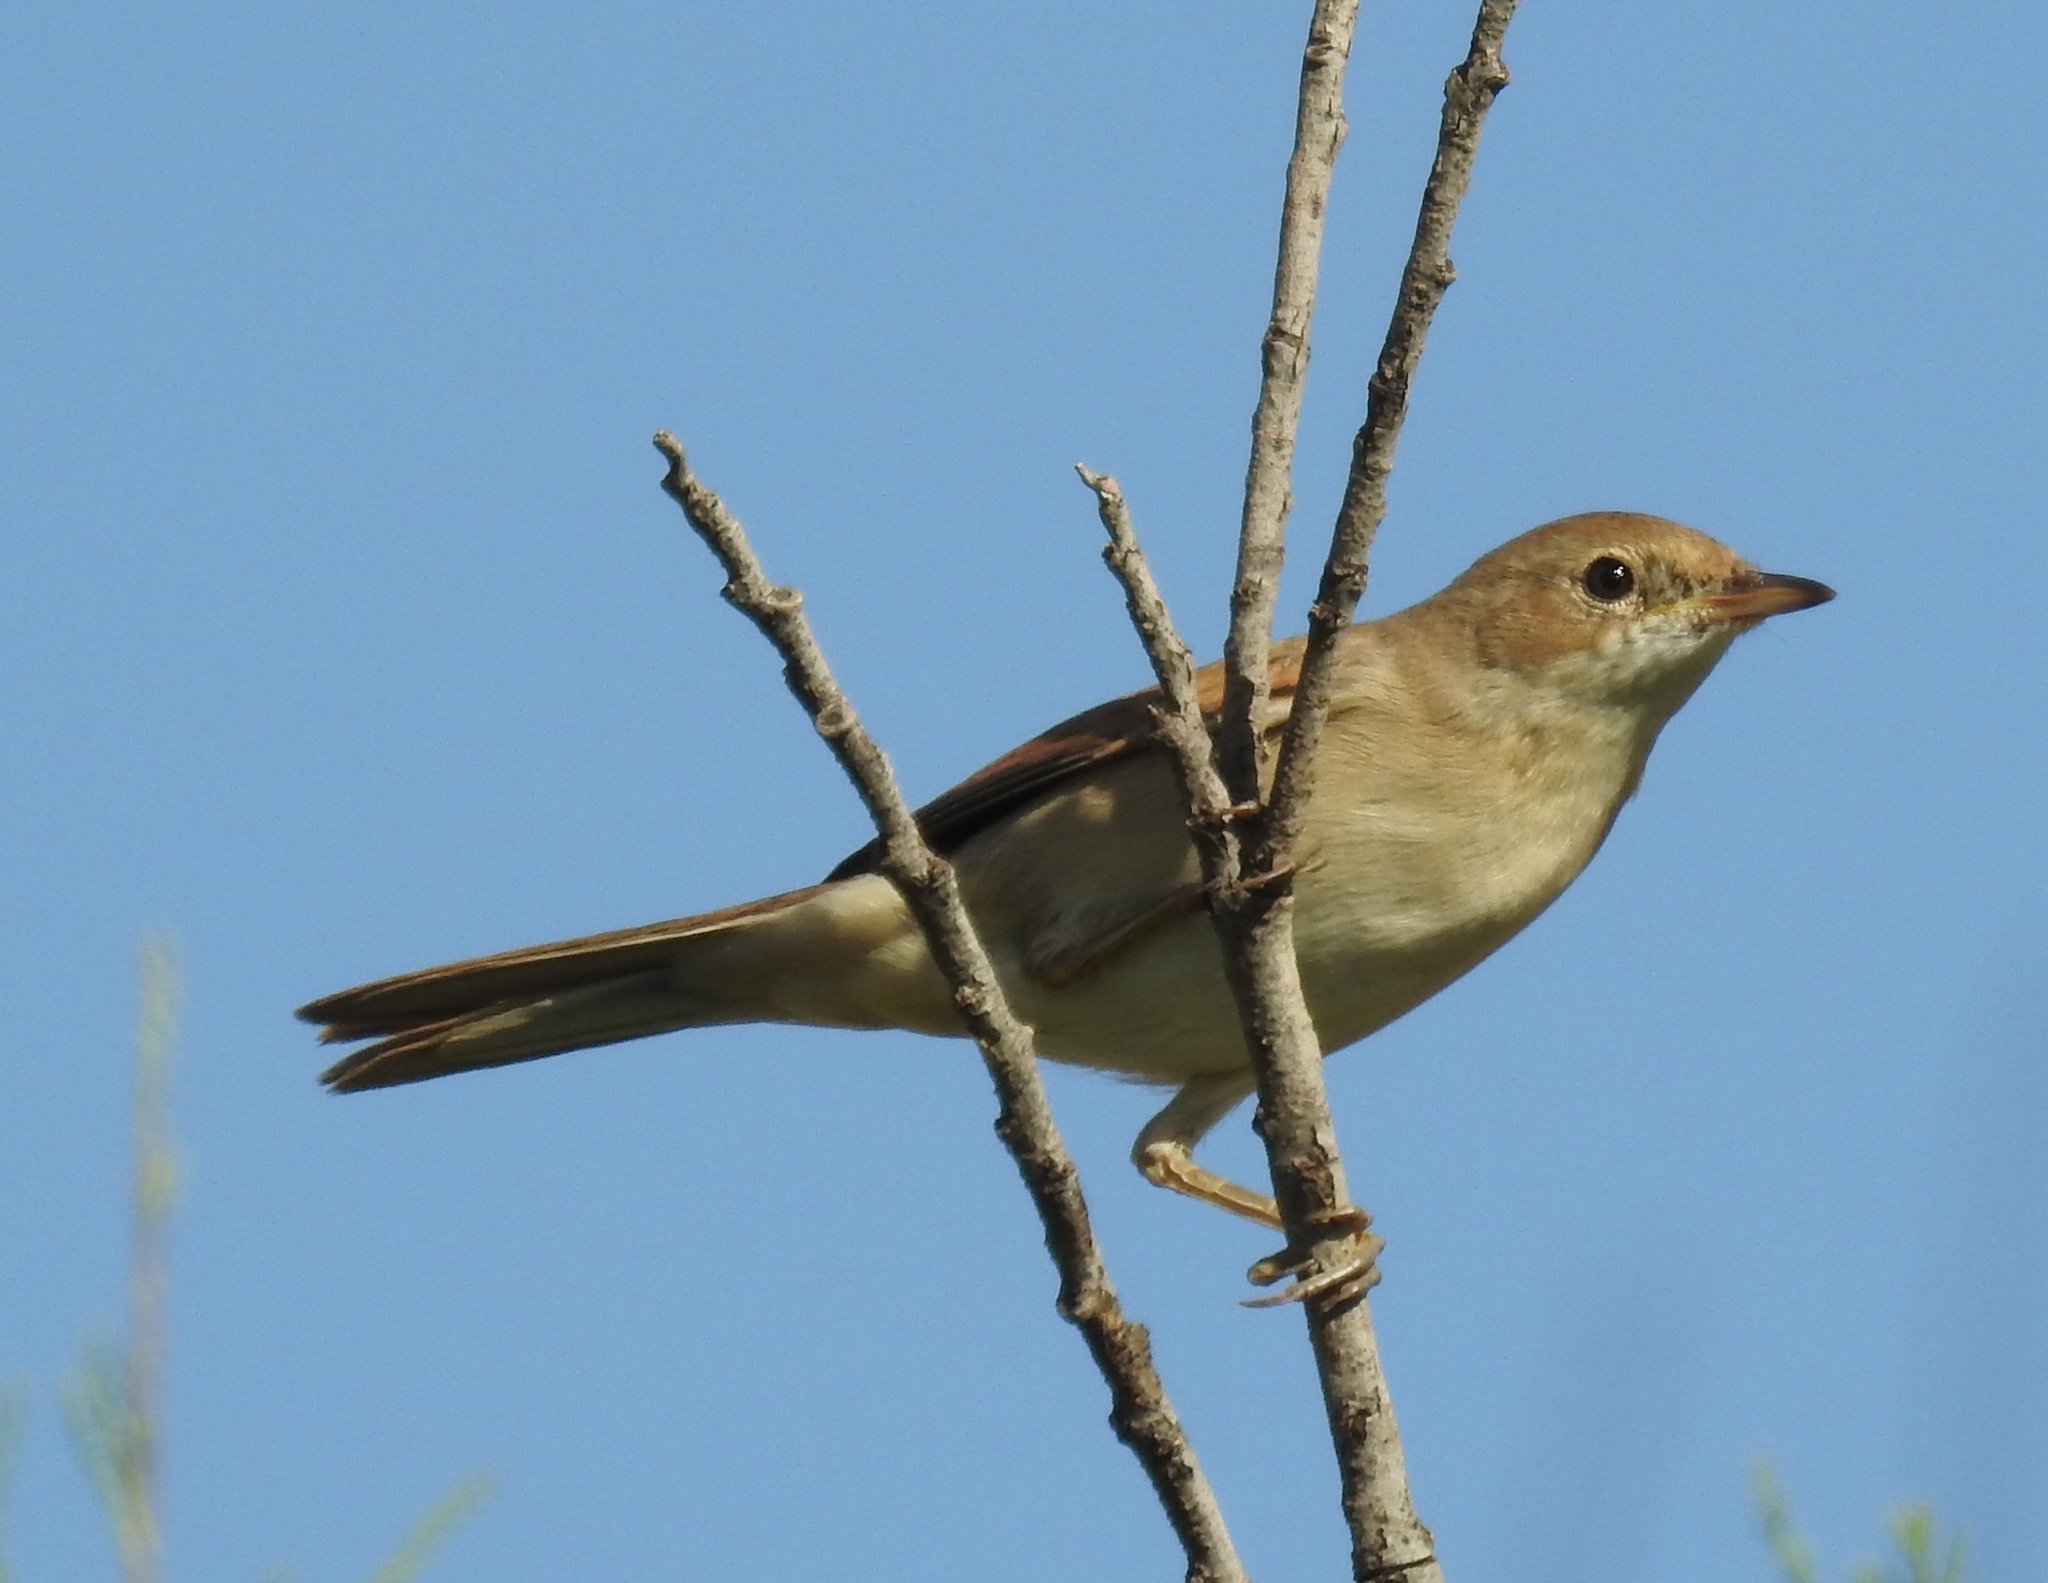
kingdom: Animalia
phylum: Chordata
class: Aves
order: Passeriformes
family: Sylviidae
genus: Sylvia
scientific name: Sylvia communis
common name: Common whitethroat
